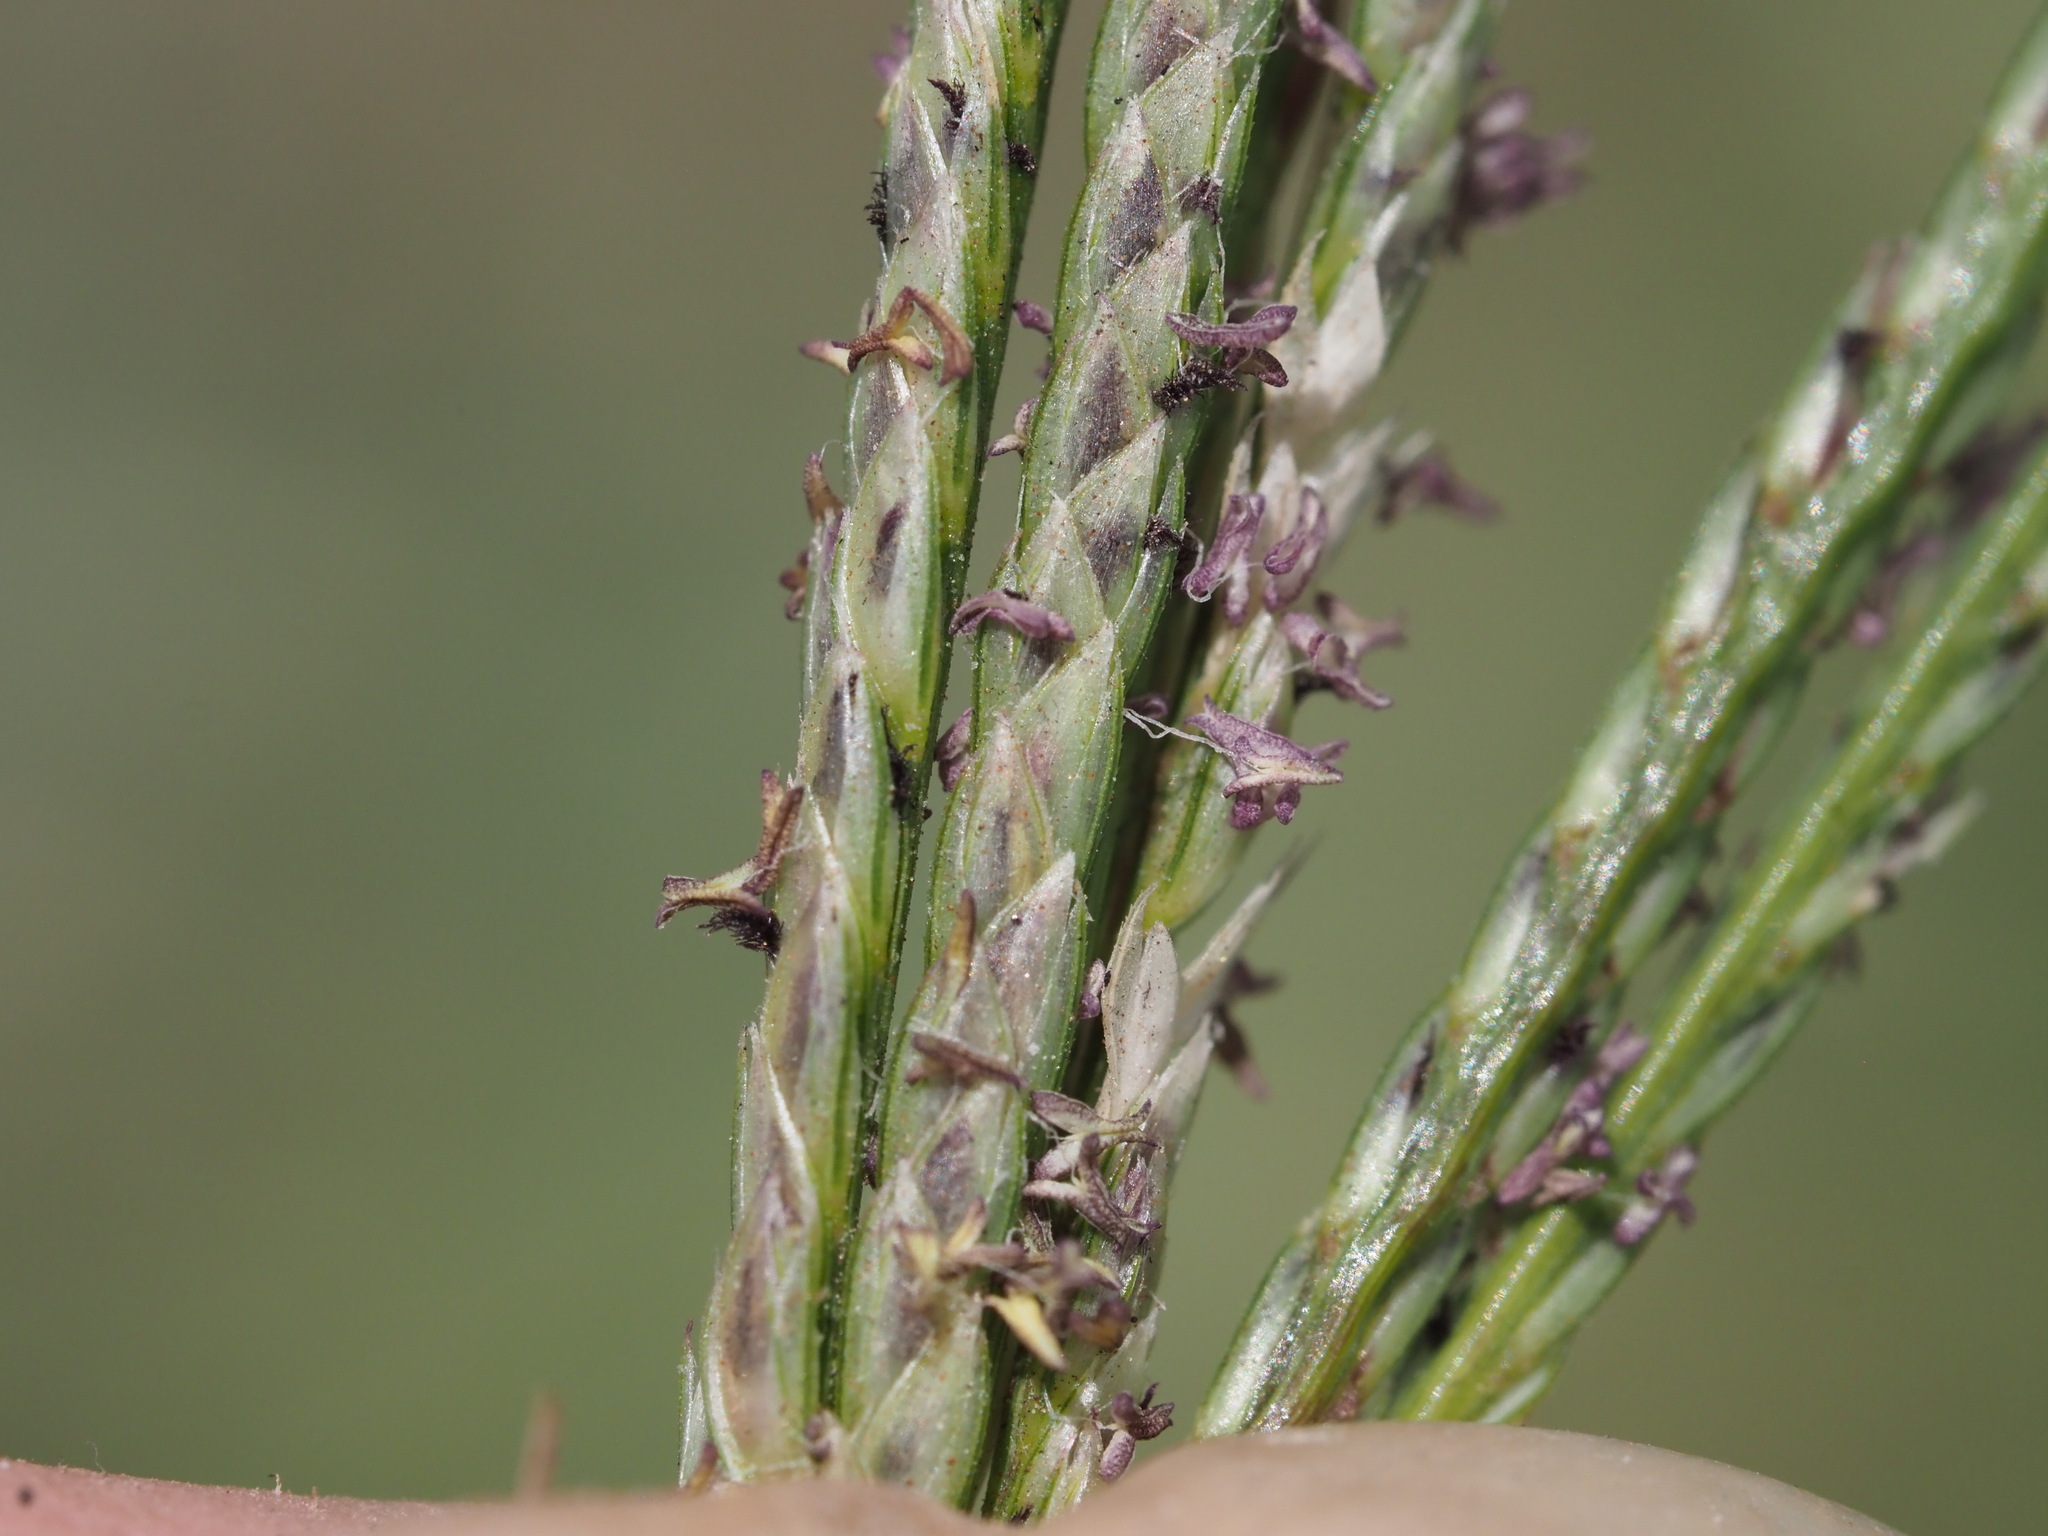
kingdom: Plantae
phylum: Tracheophyta
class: Liliopsida
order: Poales
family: Poaceae
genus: Cynodon
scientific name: Cynodon nlemfuensis
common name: African bermudagrass
